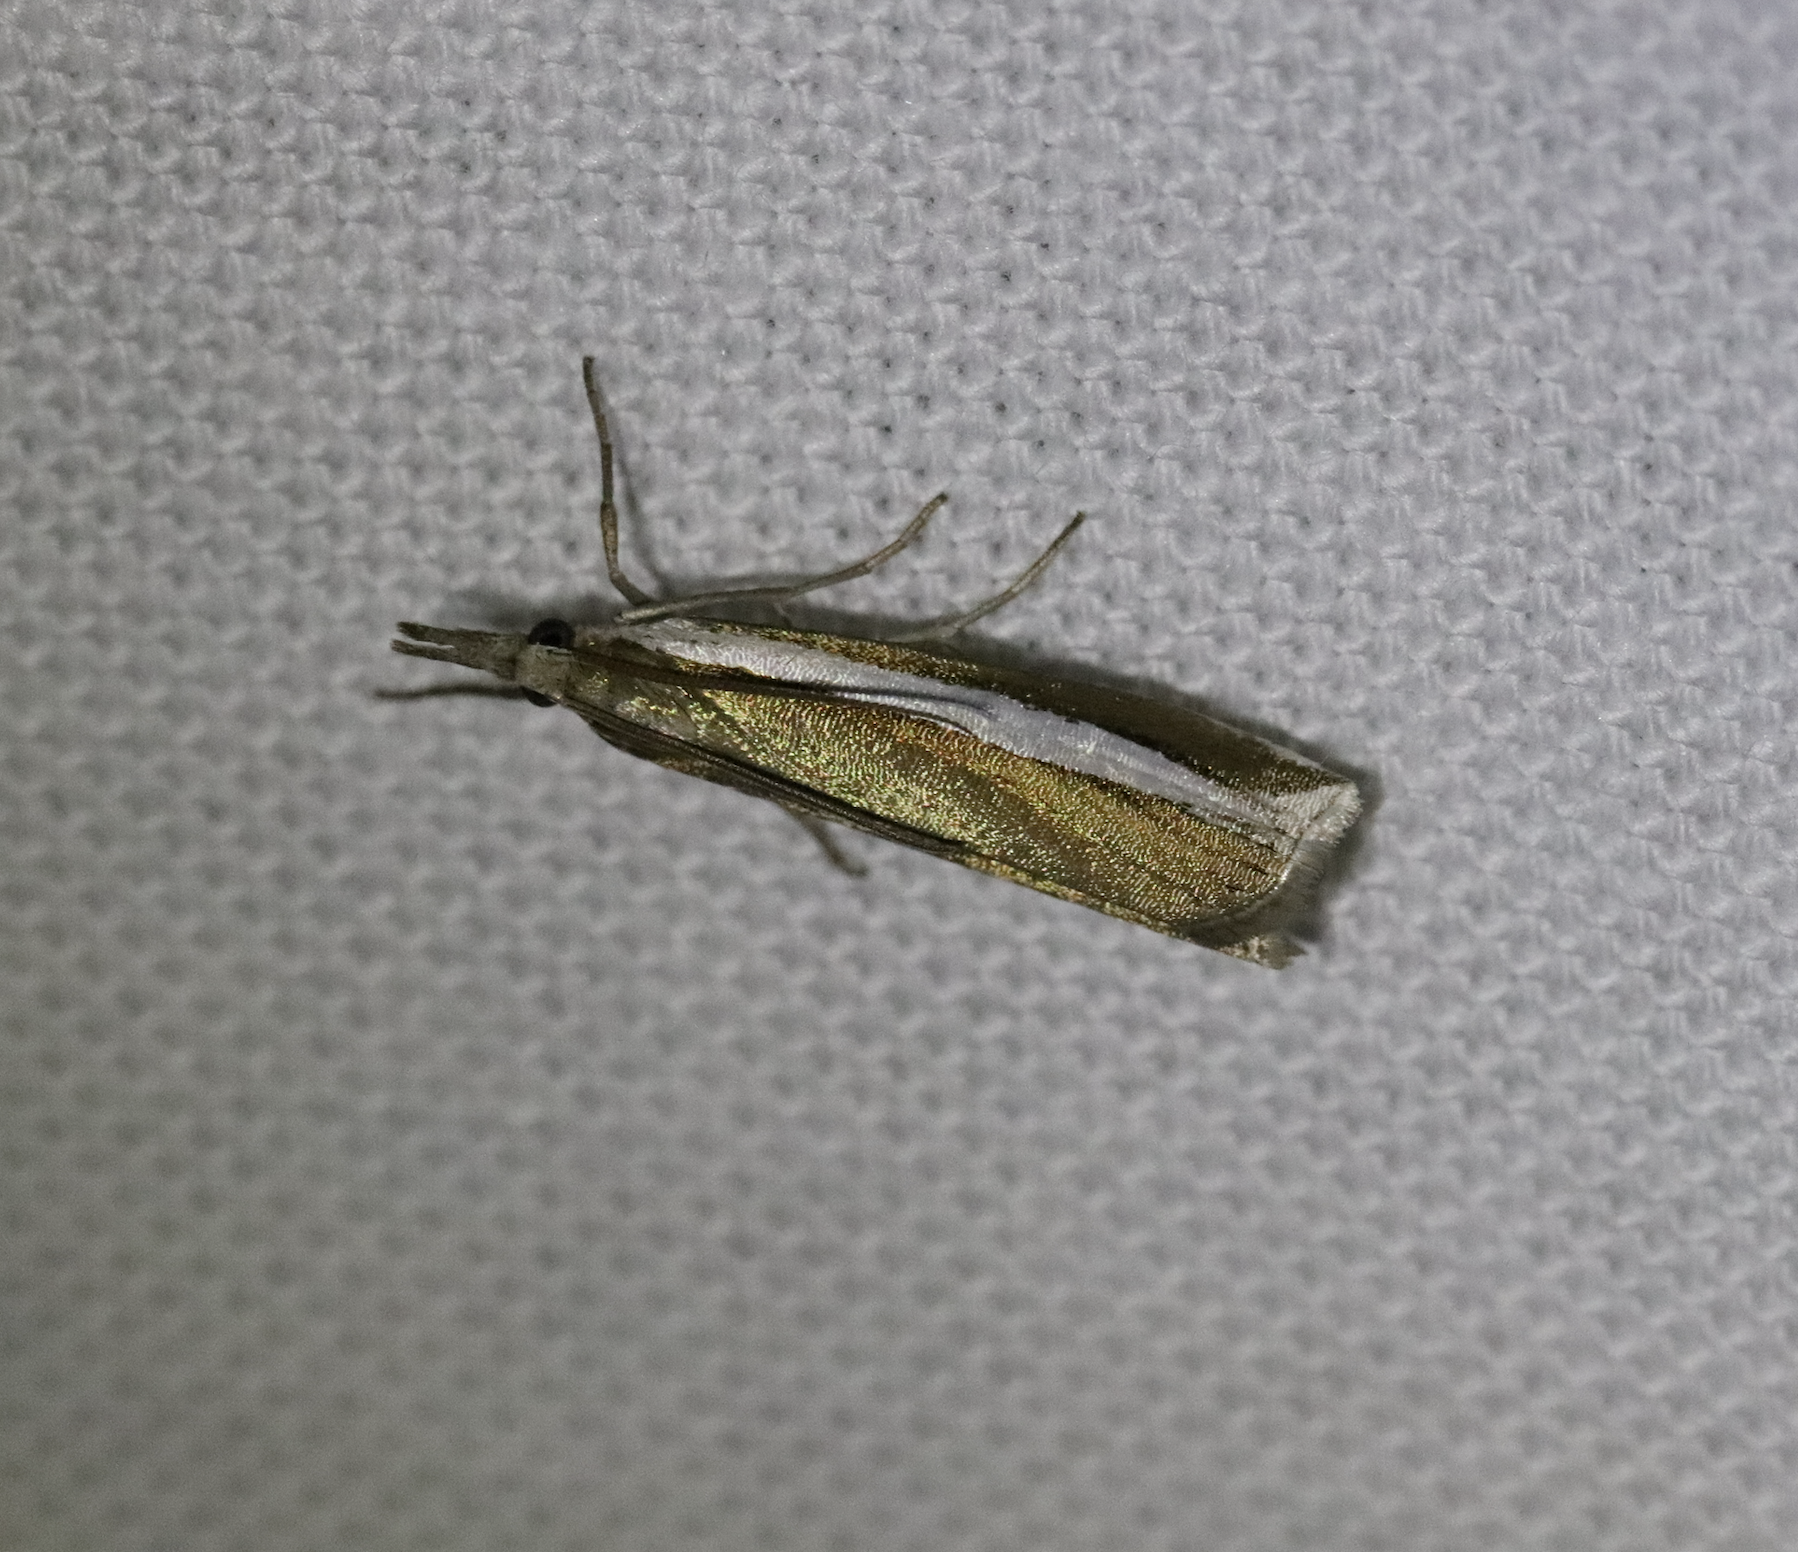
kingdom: Animalia
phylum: Arthropoda
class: Insecta
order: Lepidoptera
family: Crambidae
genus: Crambus
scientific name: Crambus unistriatellus
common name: Wide-stripe grass-veneer moth
